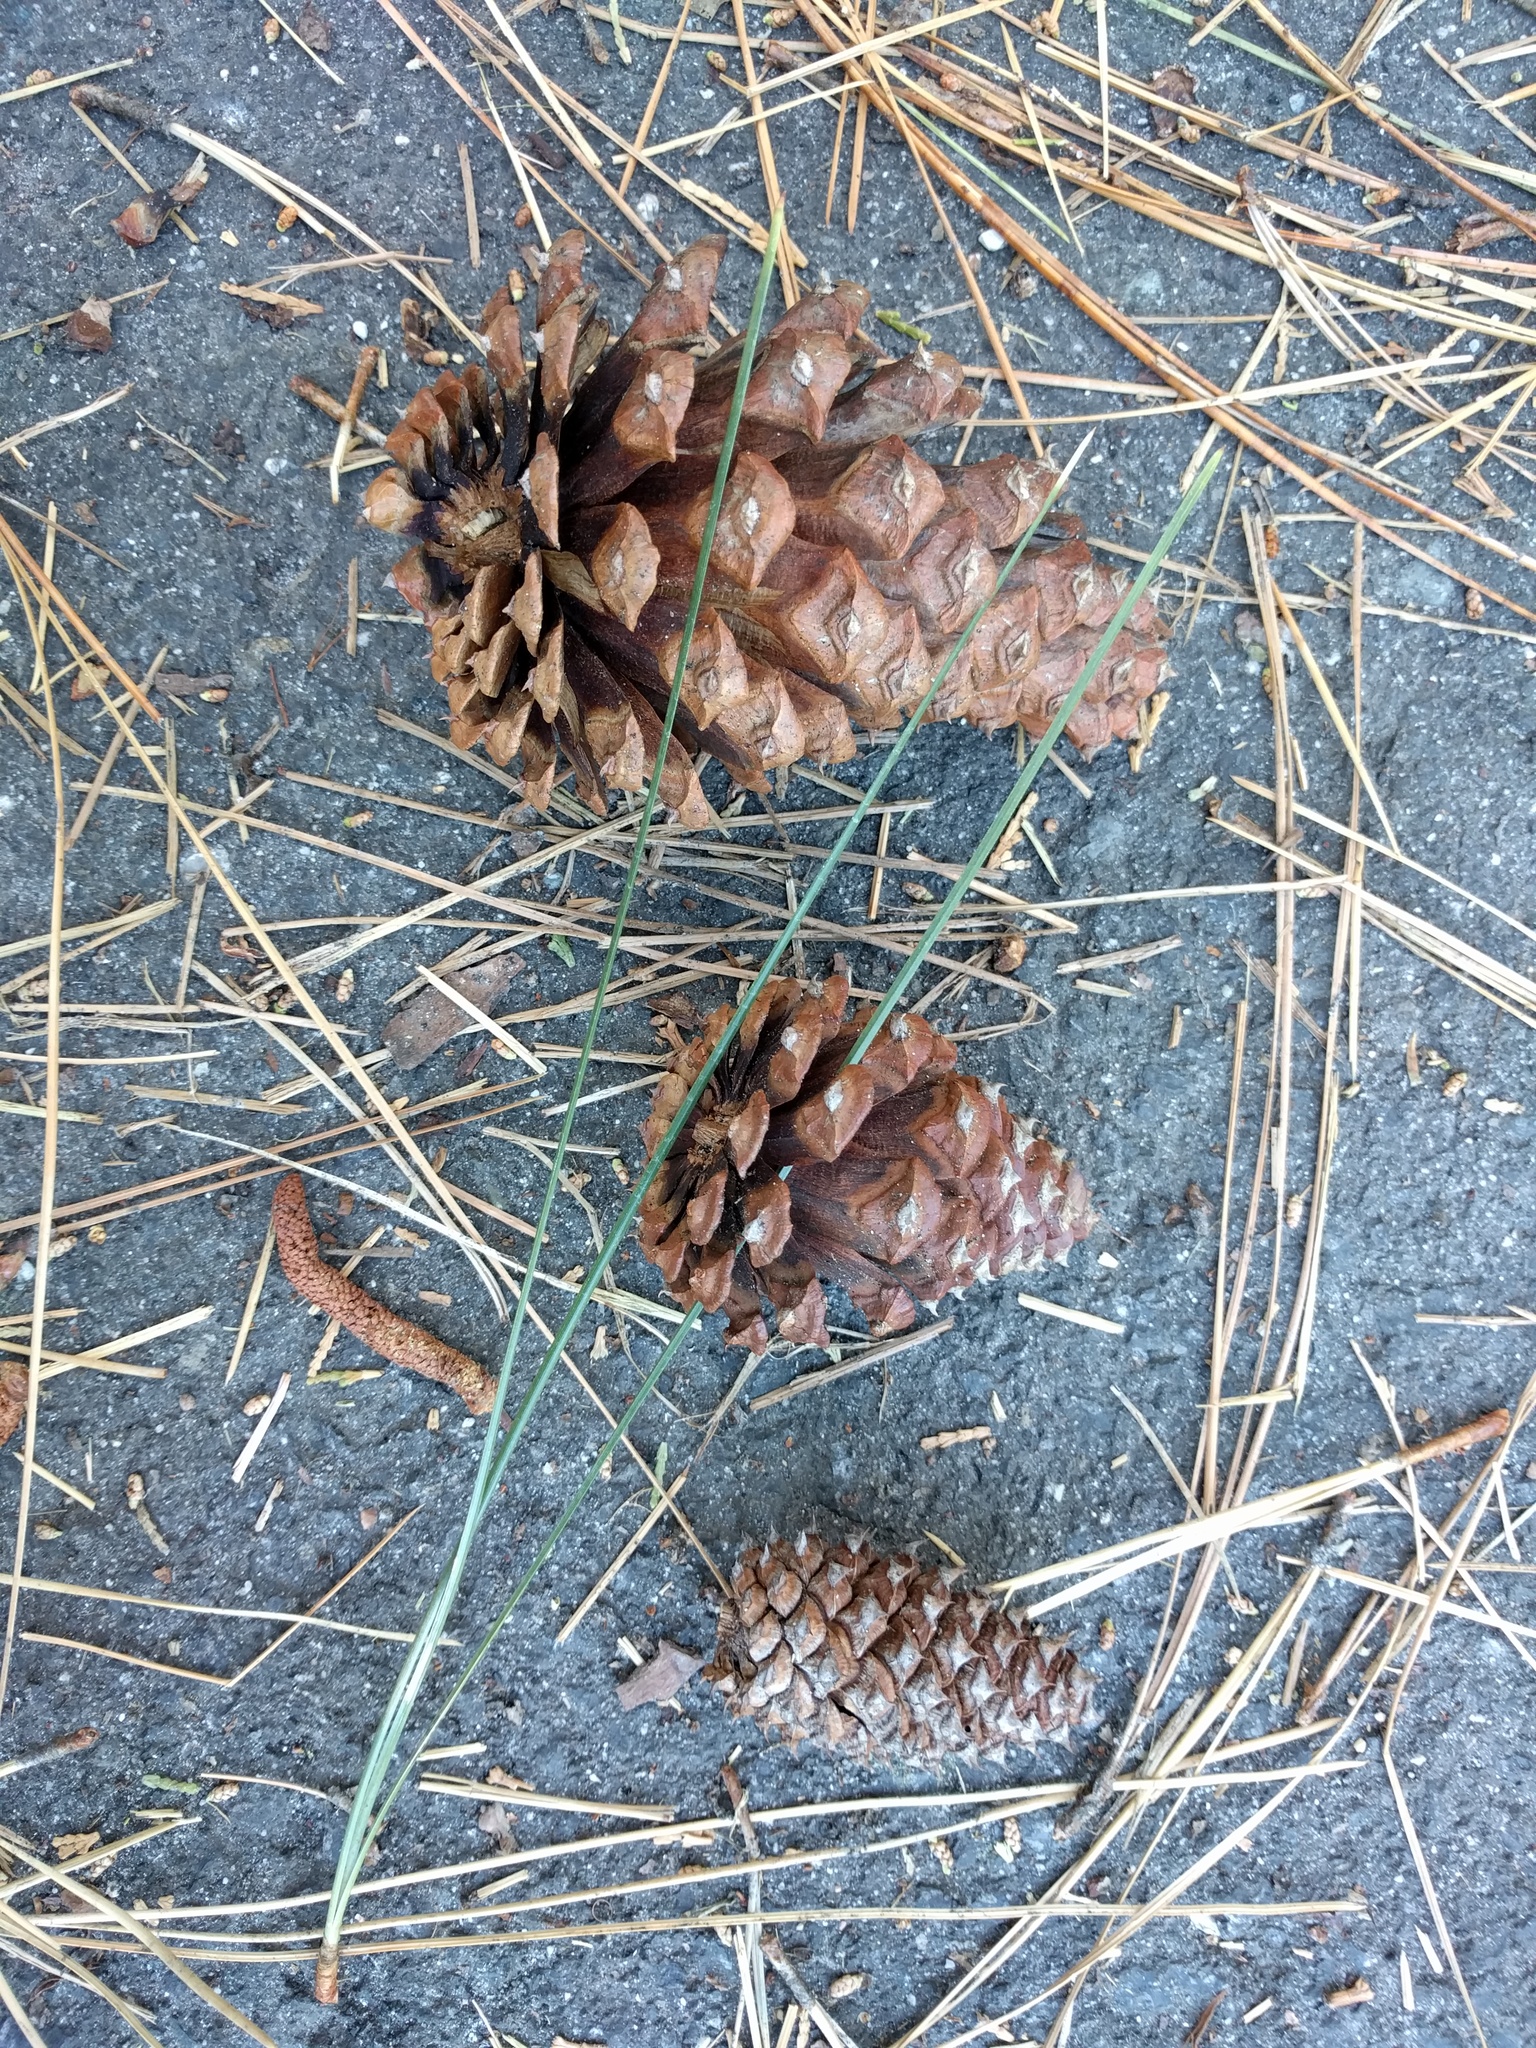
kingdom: Plantae
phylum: Tracheophyta
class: Pinopsida
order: Pinales
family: Pinaceae
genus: Pinus
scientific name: Pinus ponderosa
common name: Western yellow-pine
